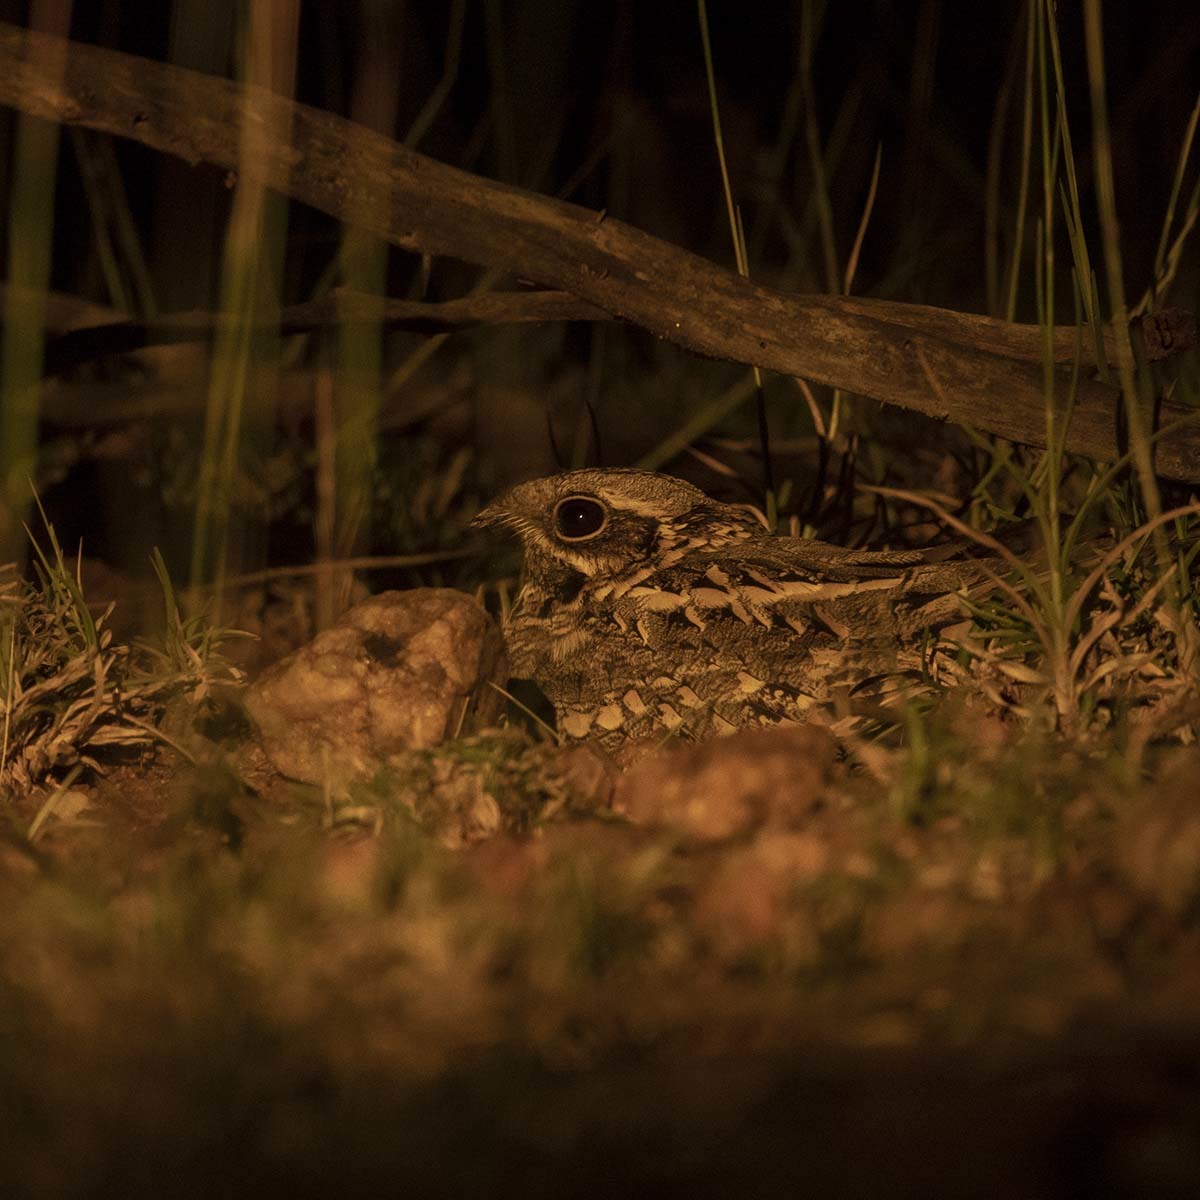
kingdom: Animalia
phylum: Chordata
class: Aves
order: Caprimulgiformes
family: Caprimulgidae
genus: Caprimulgus
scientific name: Caprimulgus asiaticus
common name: Indian nightjar
